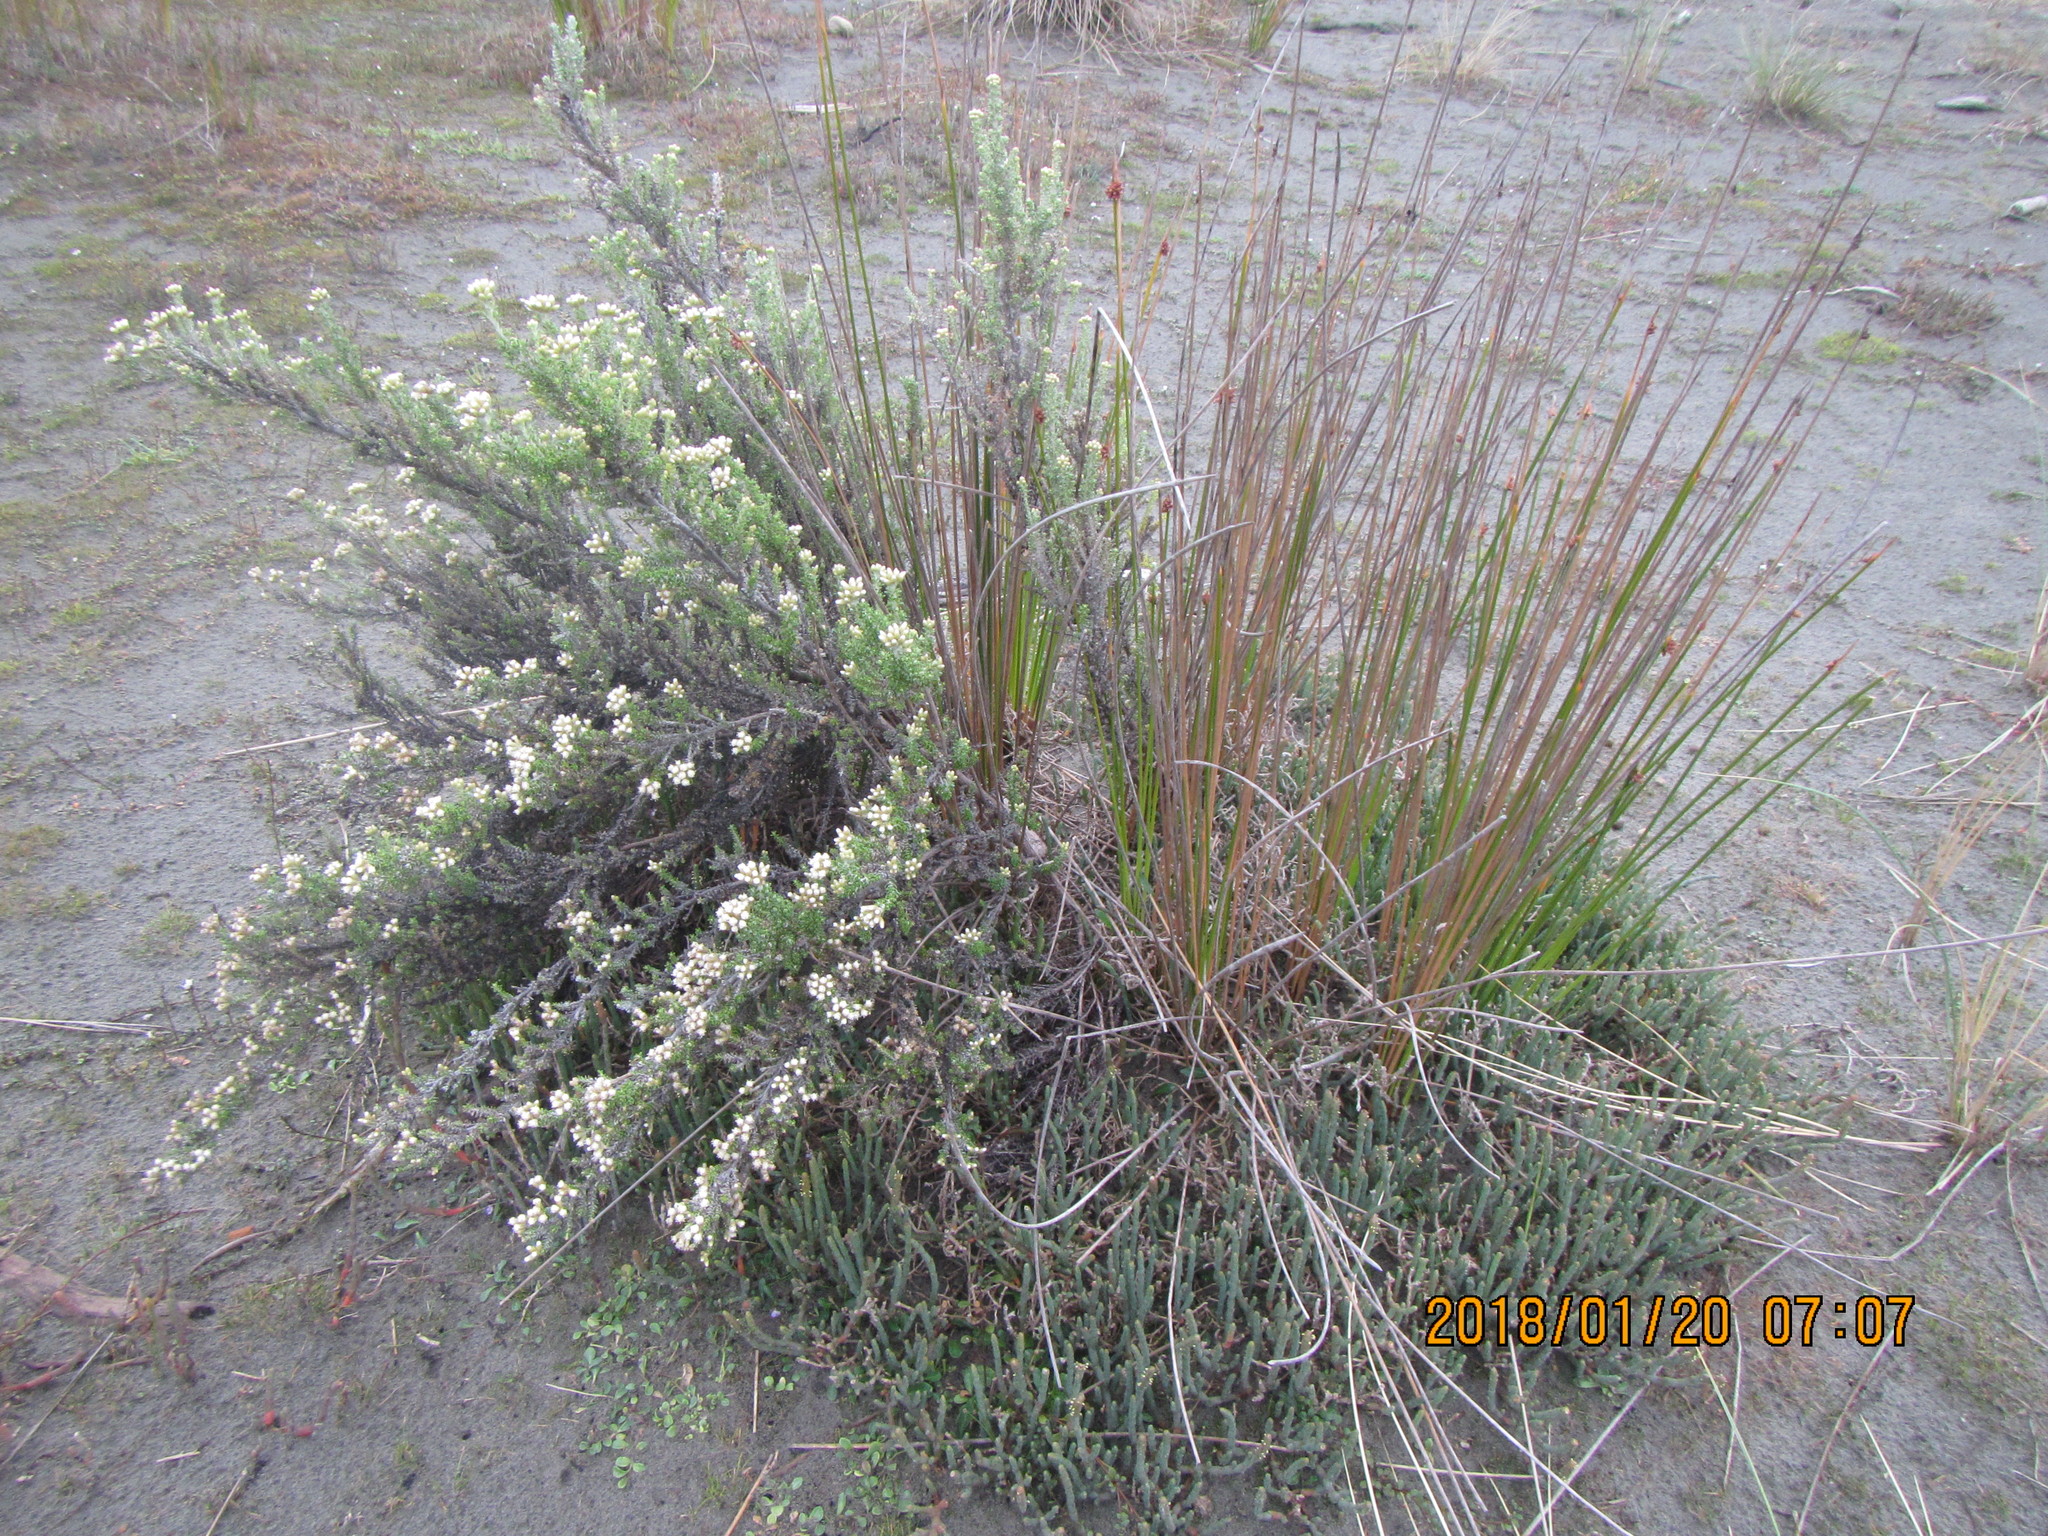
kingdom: Plantae
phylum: Tracheophyta
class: Magnoliopsida
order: Asterales
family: Asteraceae
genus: Ozothamnus
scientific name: Ozothamnus leptophyllus
